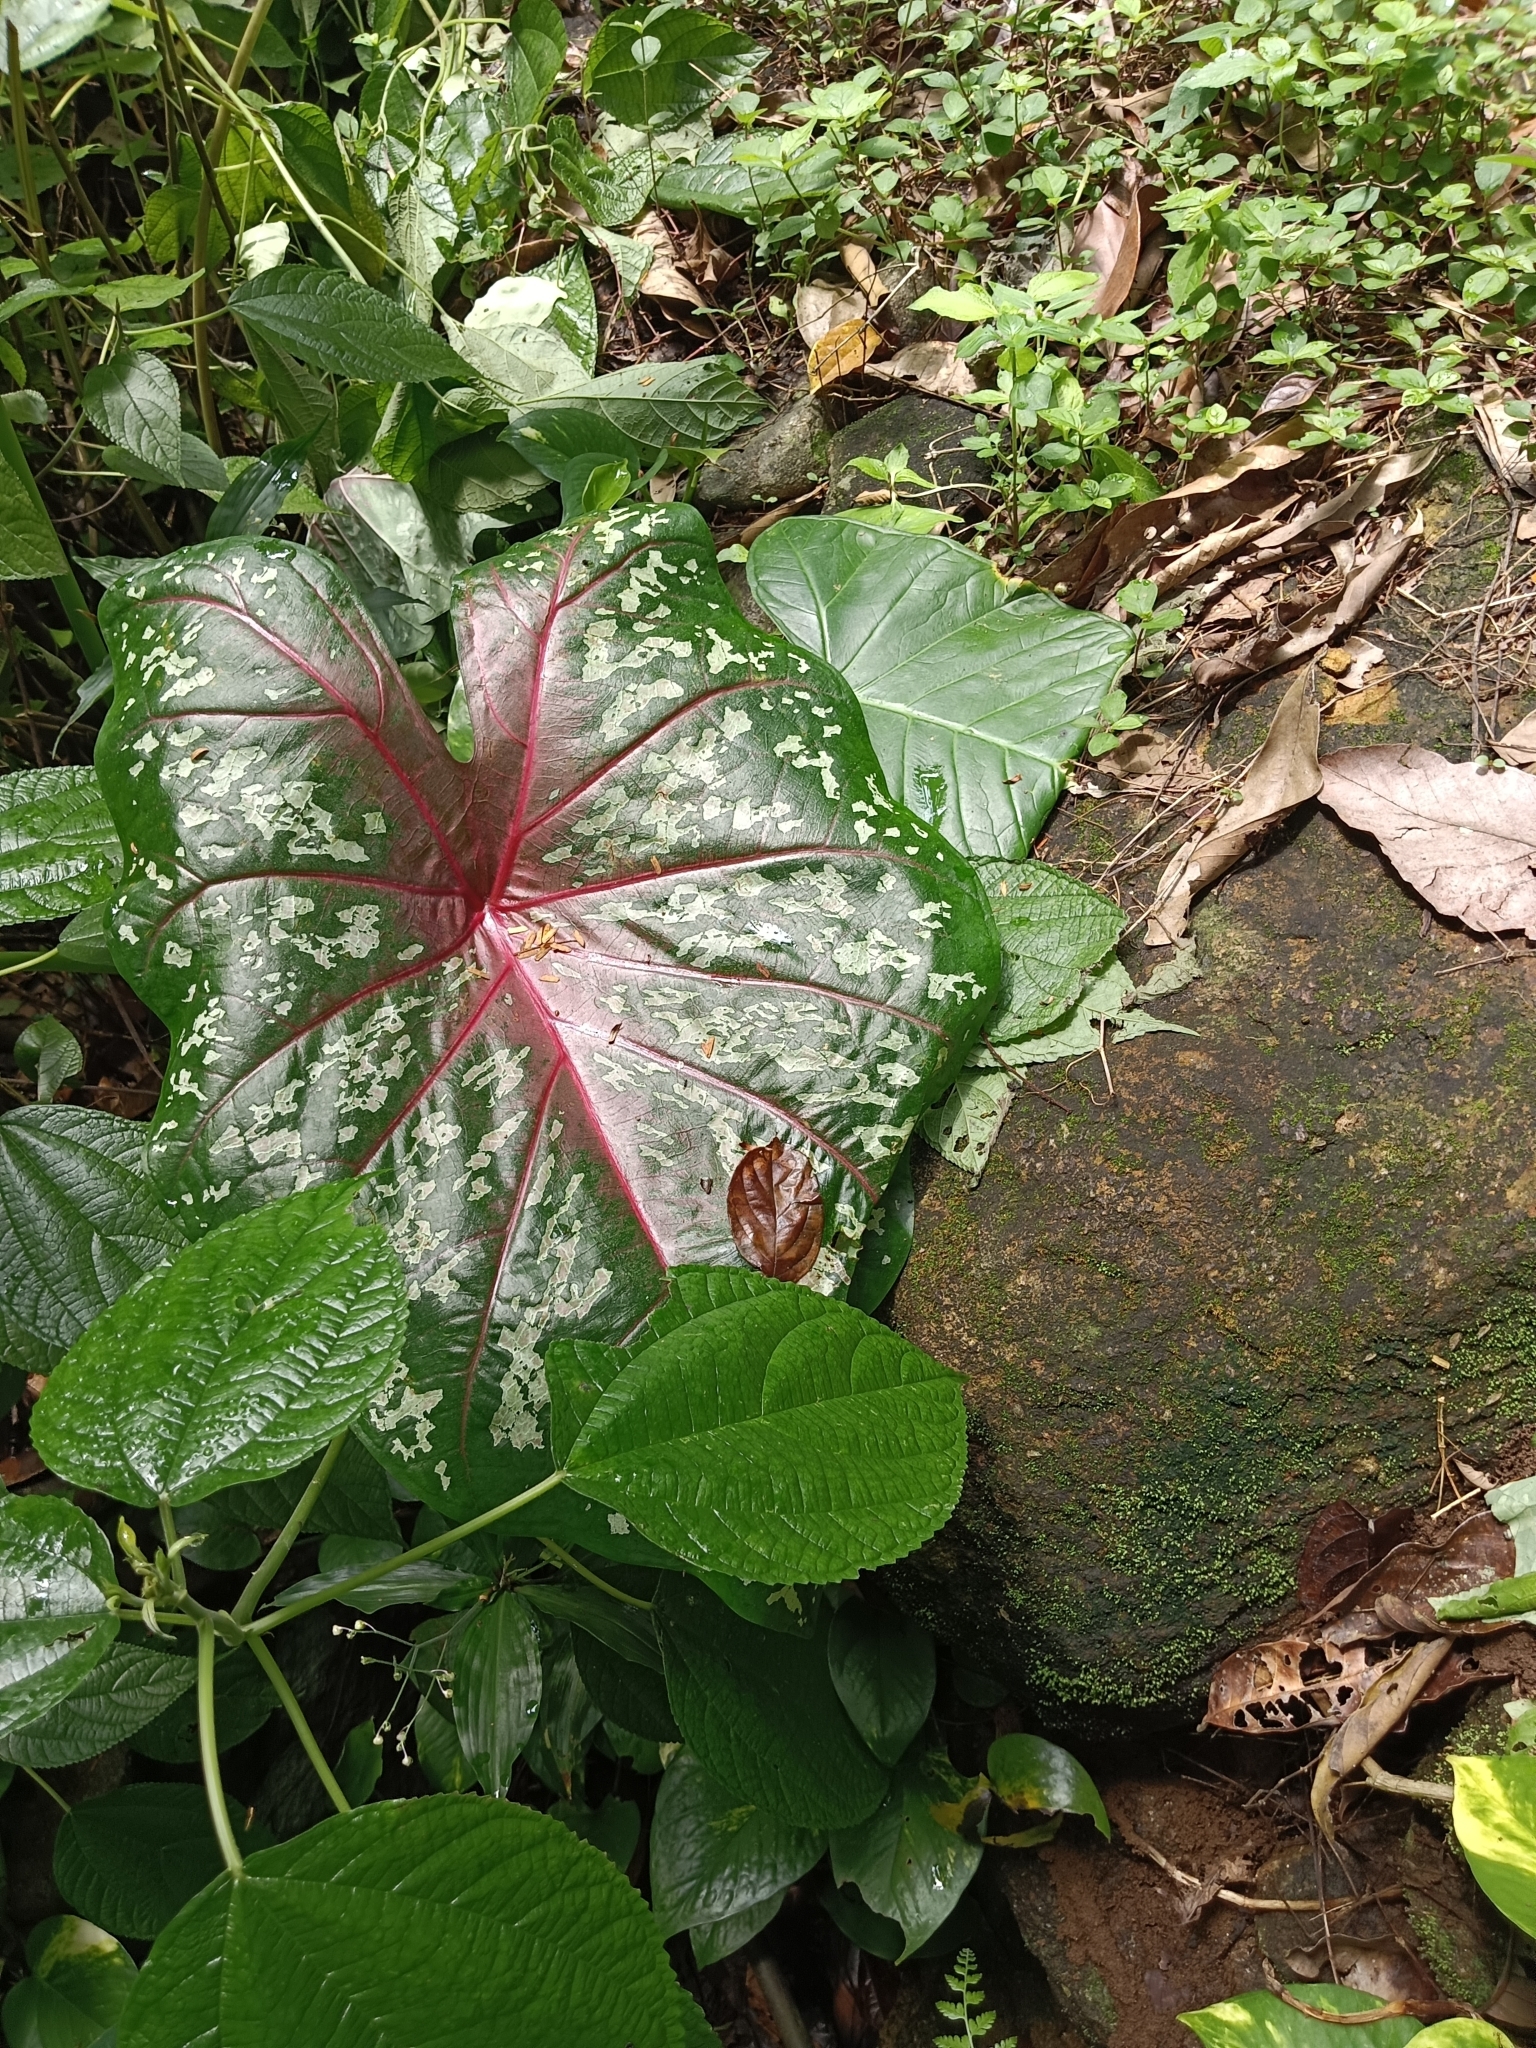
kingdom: Plantae
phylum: Tracheophyta
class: Liliopsida
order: Alismatales
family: Araceae
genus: Caladium
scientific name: Caladium bicolor
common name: Artist's pallet
